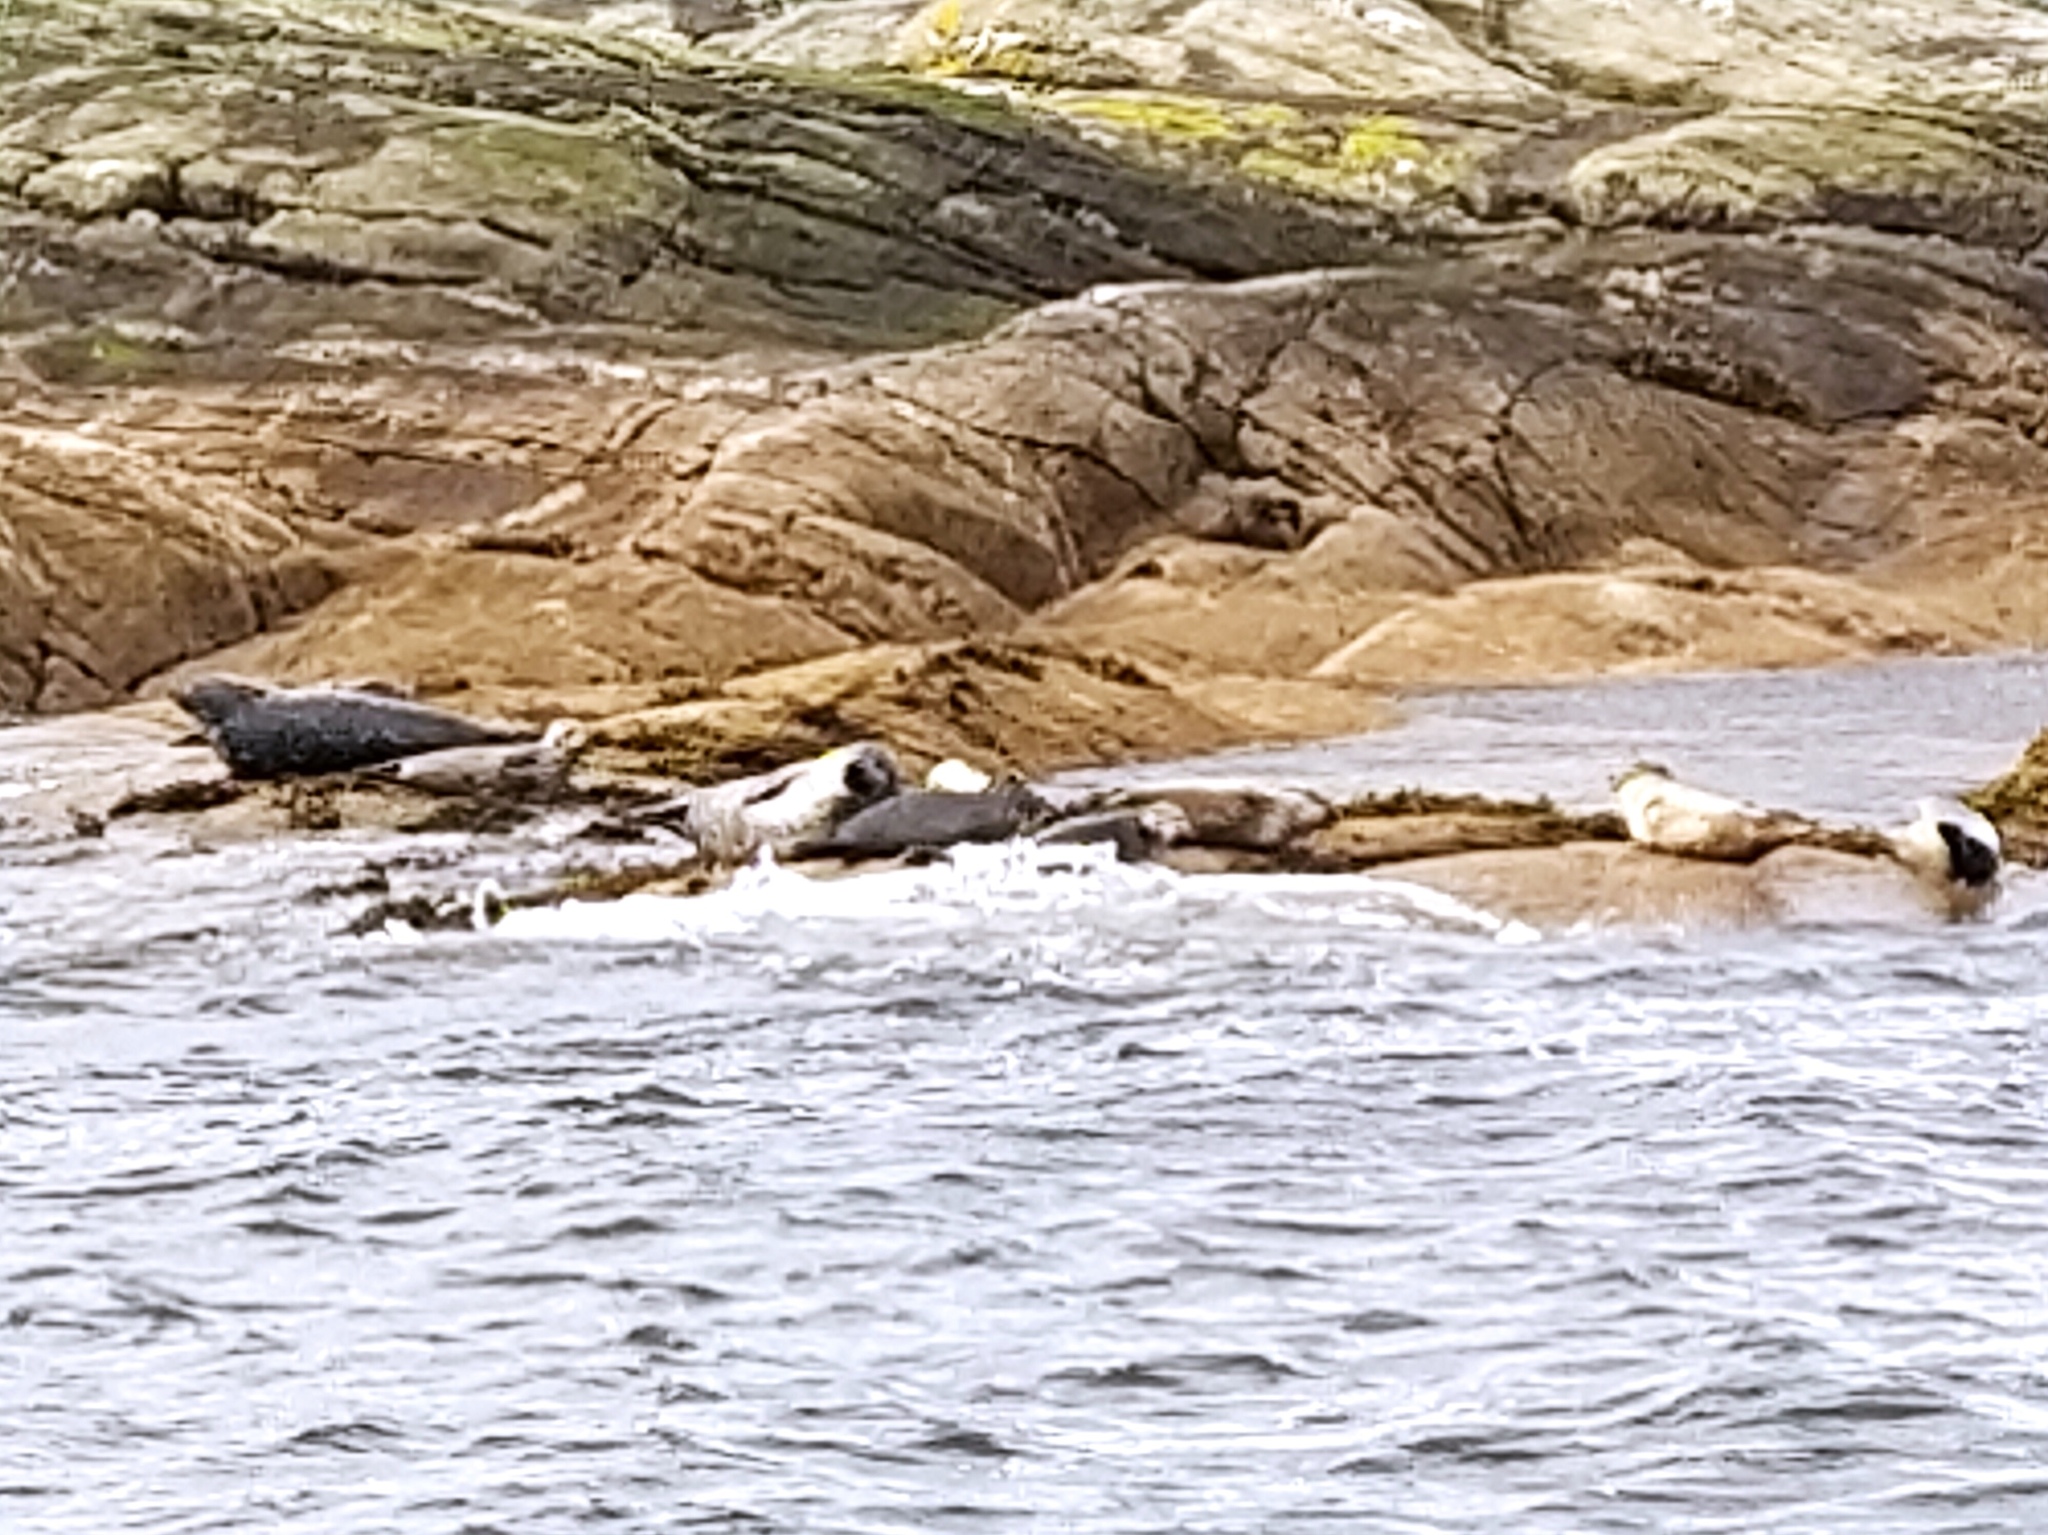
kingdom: Animalia
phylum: Chordata
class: Mammalia
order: Carnivora
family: Phocidae
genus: Phoca
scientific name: Phoca vitulina
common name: Harbor seal
